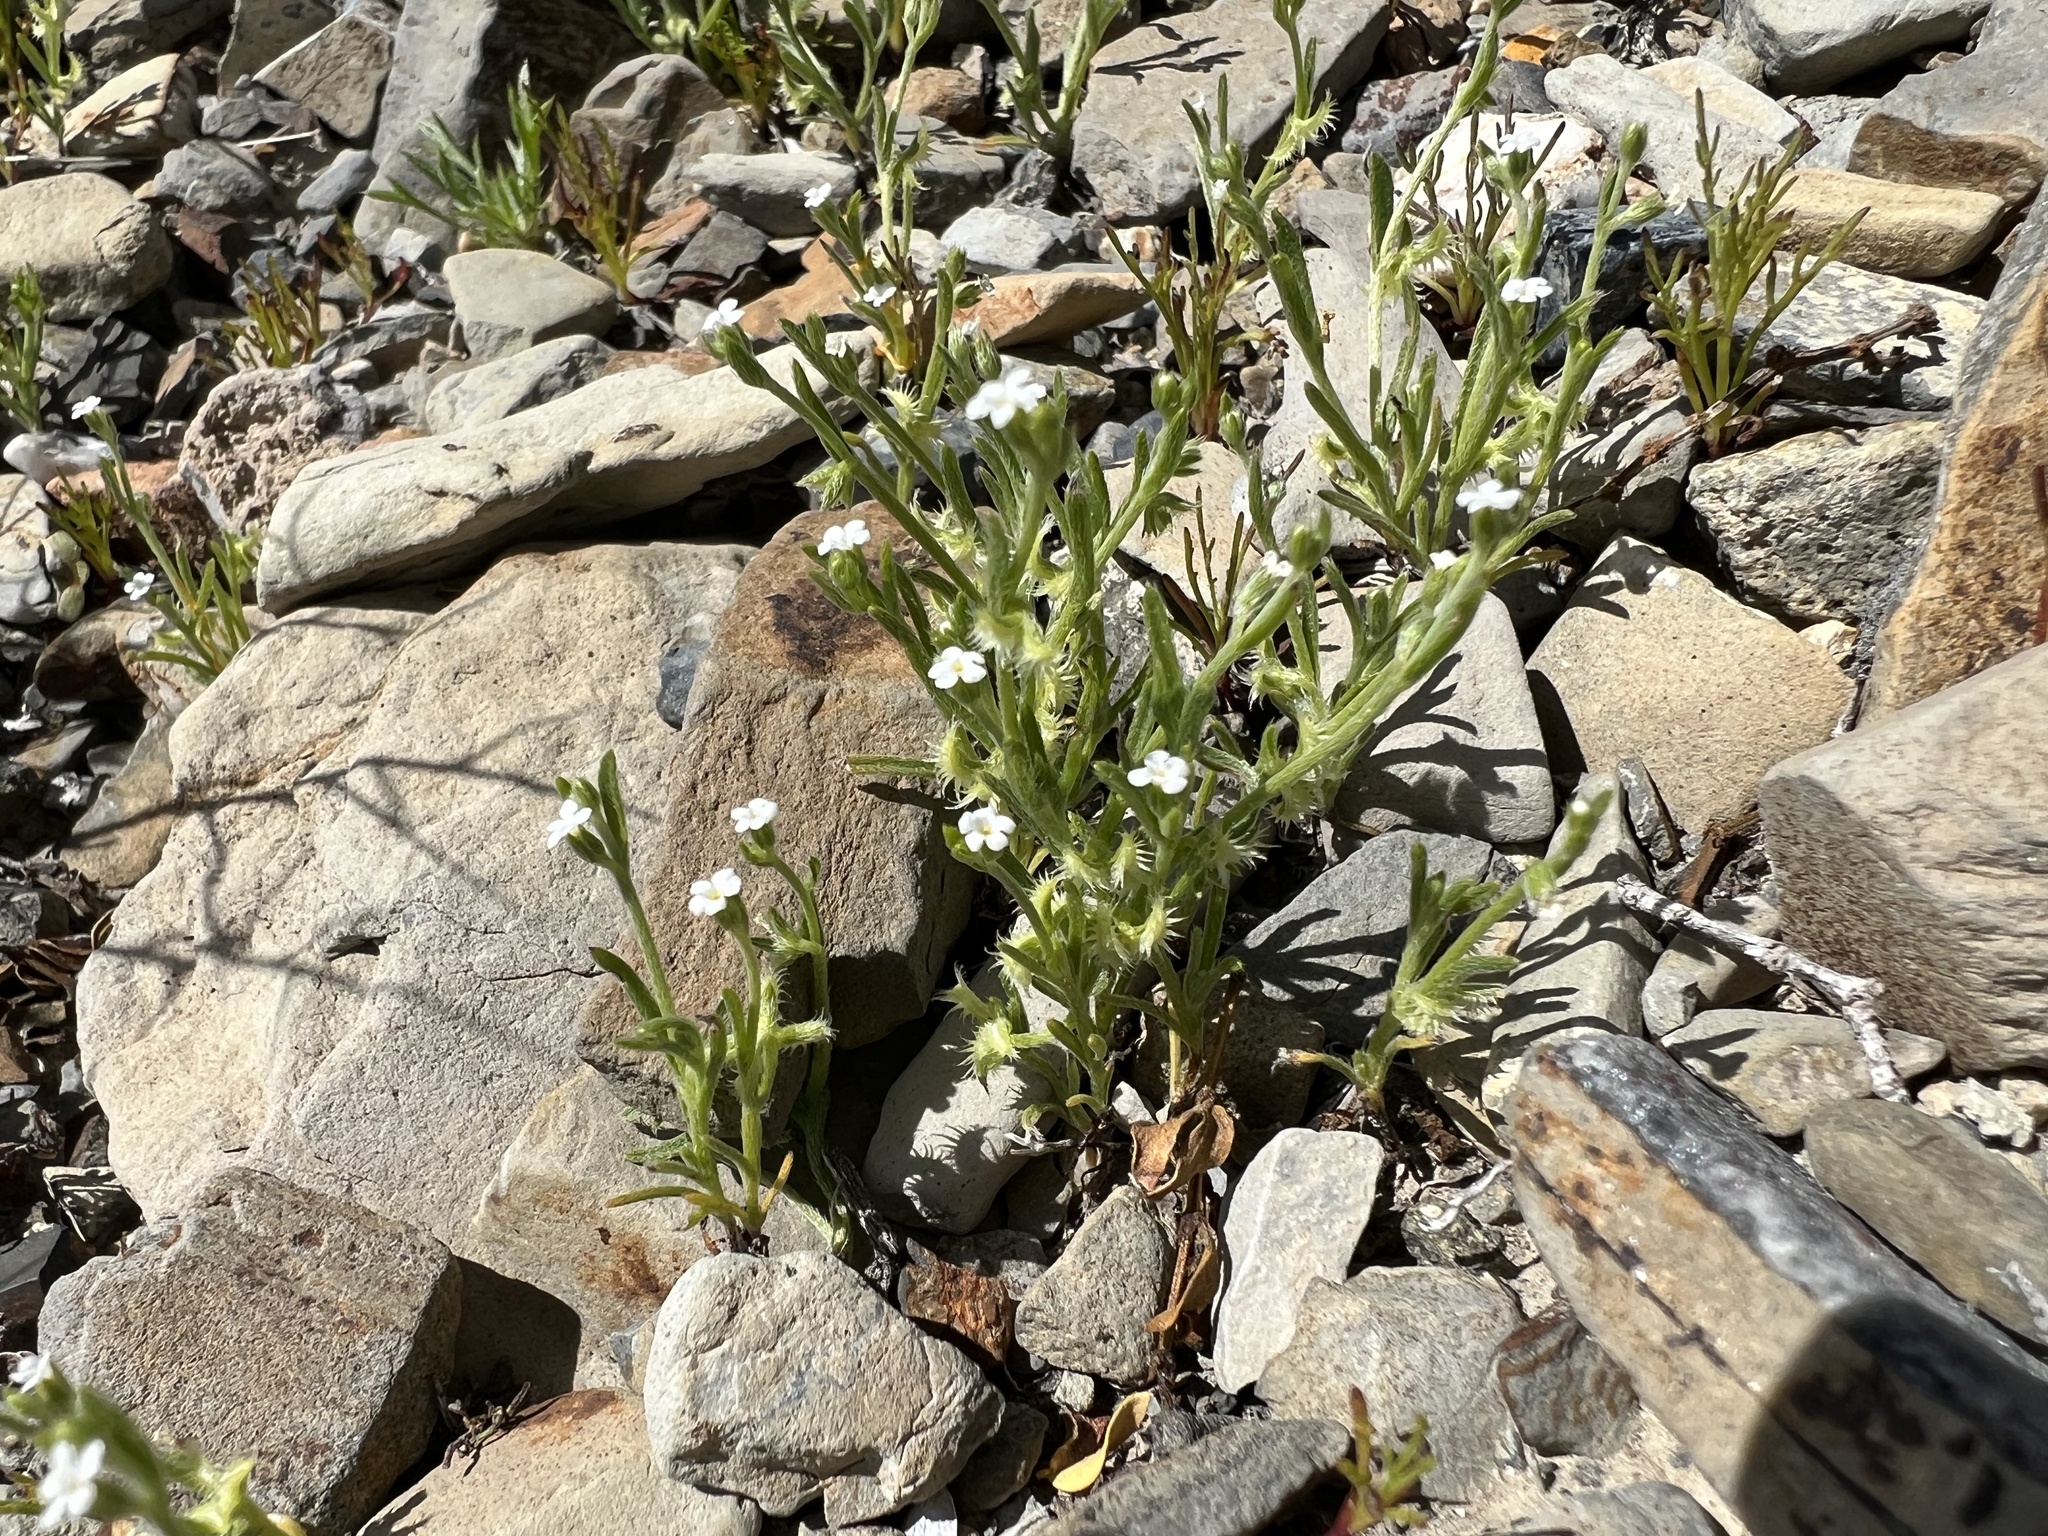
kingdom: Plantae
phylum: Tracheophyta
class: Magnoliopsida
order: Boraginales
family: Boraginaceae
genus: Pectocarya
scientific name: Pectocarya recurvata
